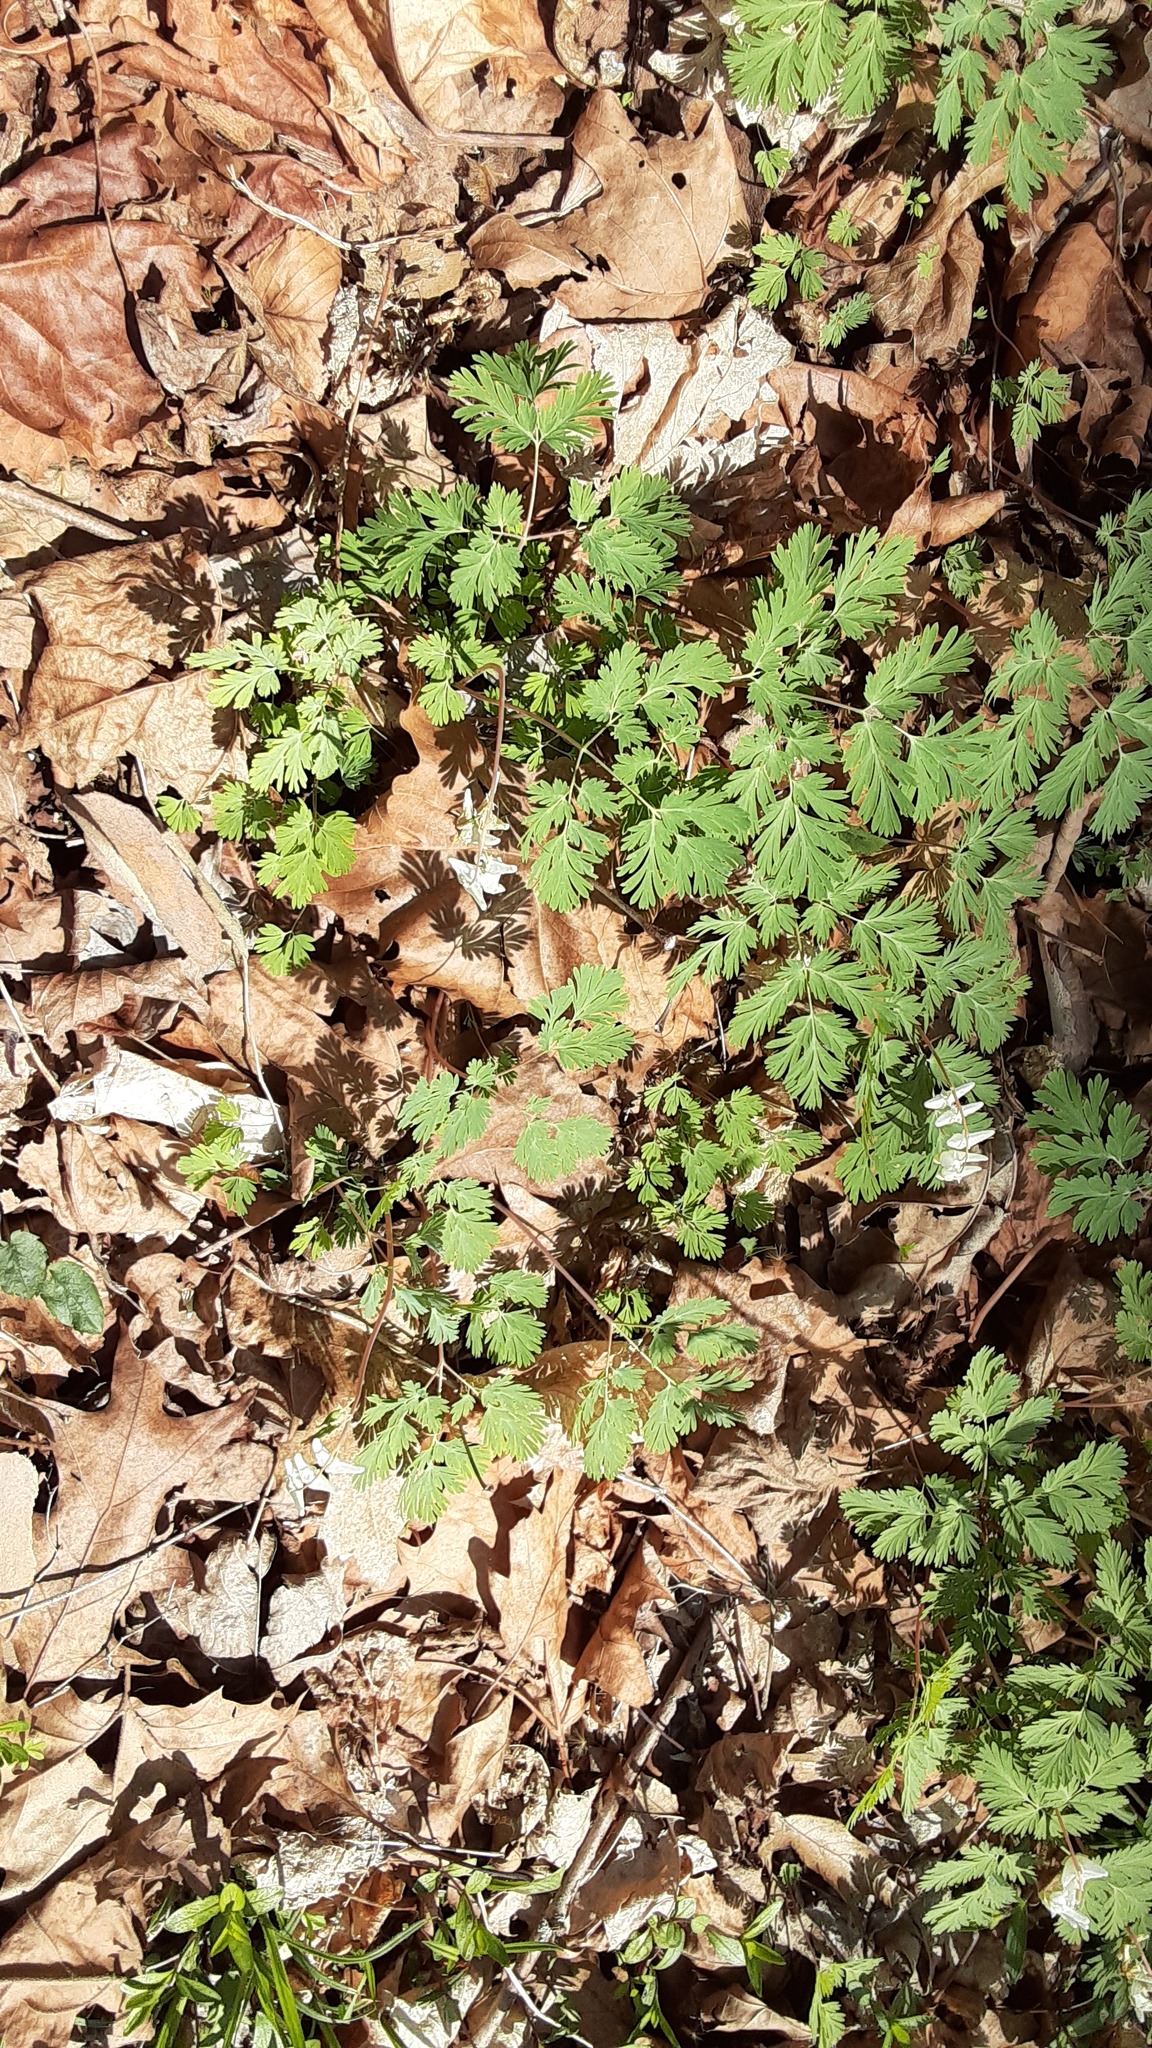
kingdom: Plantae
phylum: Tracheophyta
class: Magnoliopsida
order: Ranunculales
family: Papaveraceae
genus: Dicentra
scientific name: Dicentra cucullaria
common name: Dutchman's breeches
